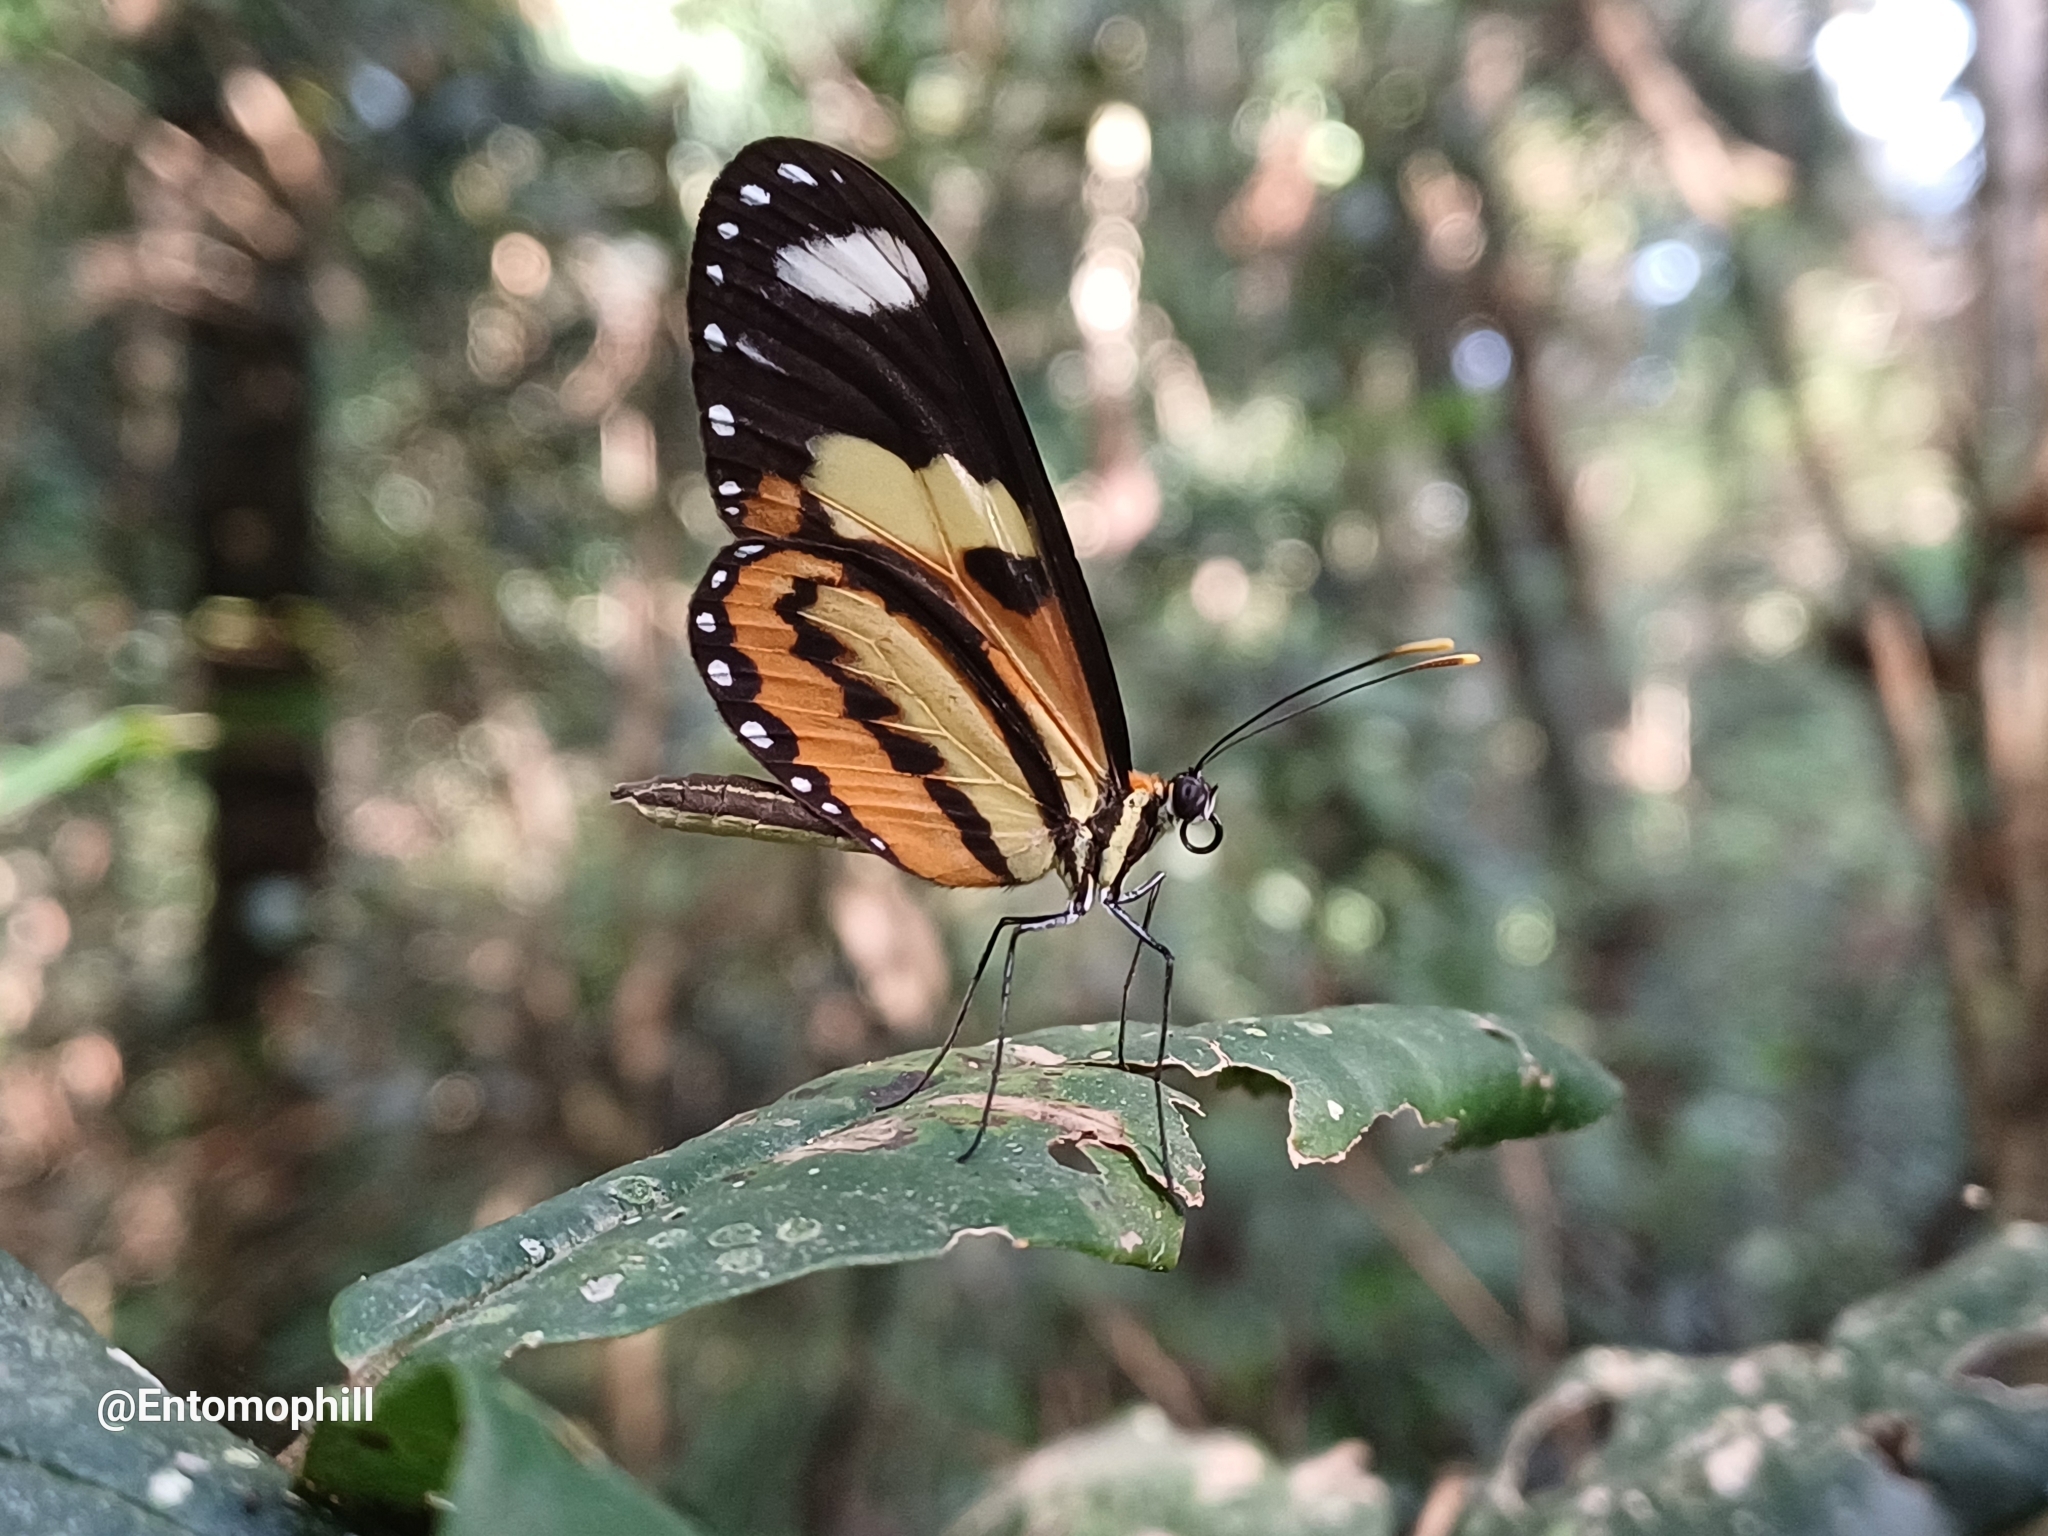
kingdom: Animalia
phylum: Arthropoda
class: Insecta
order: Lepidoptera
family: Nymphalidae
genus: Mechanitis
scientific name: Mechanitis lysimnia
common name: Lysimnia tigerwing
